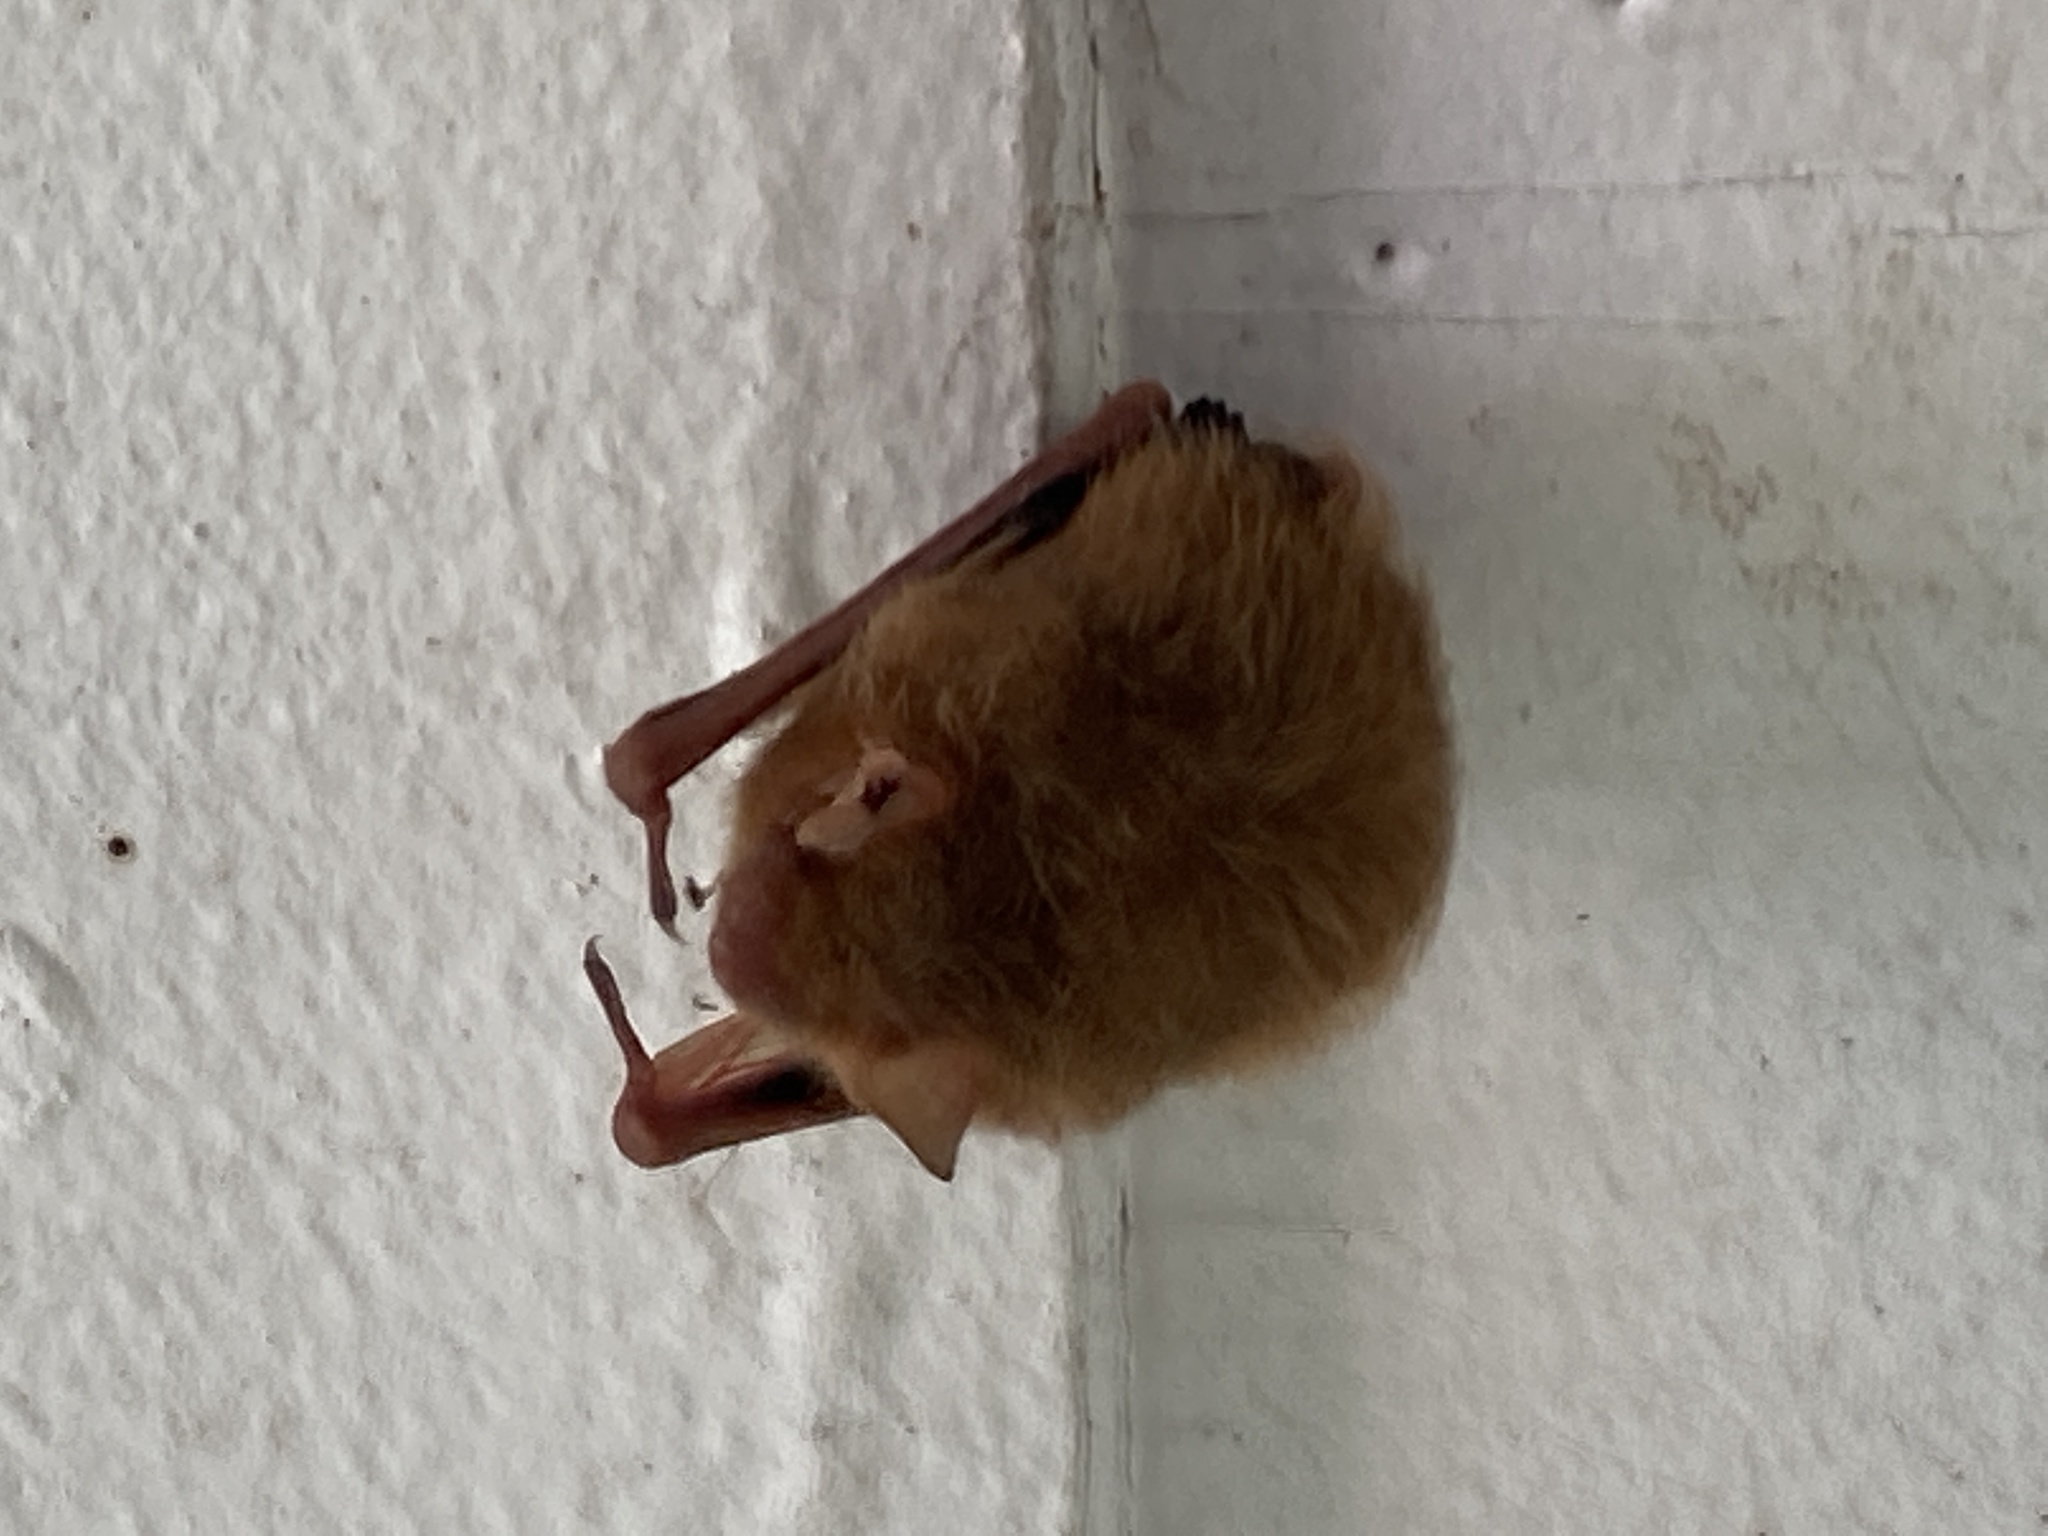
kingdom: Animalia
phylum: Chordata
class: Mammalia
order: Chiroptera
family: Vespertilionidae
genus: Perimyotis
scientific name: Perimyotis subflavus
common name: Eastern pipistrelle
